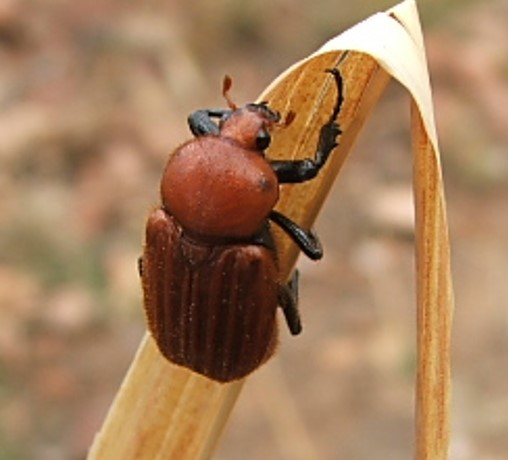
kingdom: Animalia
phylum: Arthropoda
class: Insecta
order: Coleoptera
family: Scarabaeidae
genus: Myodermum
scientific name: Myodermum rufum
